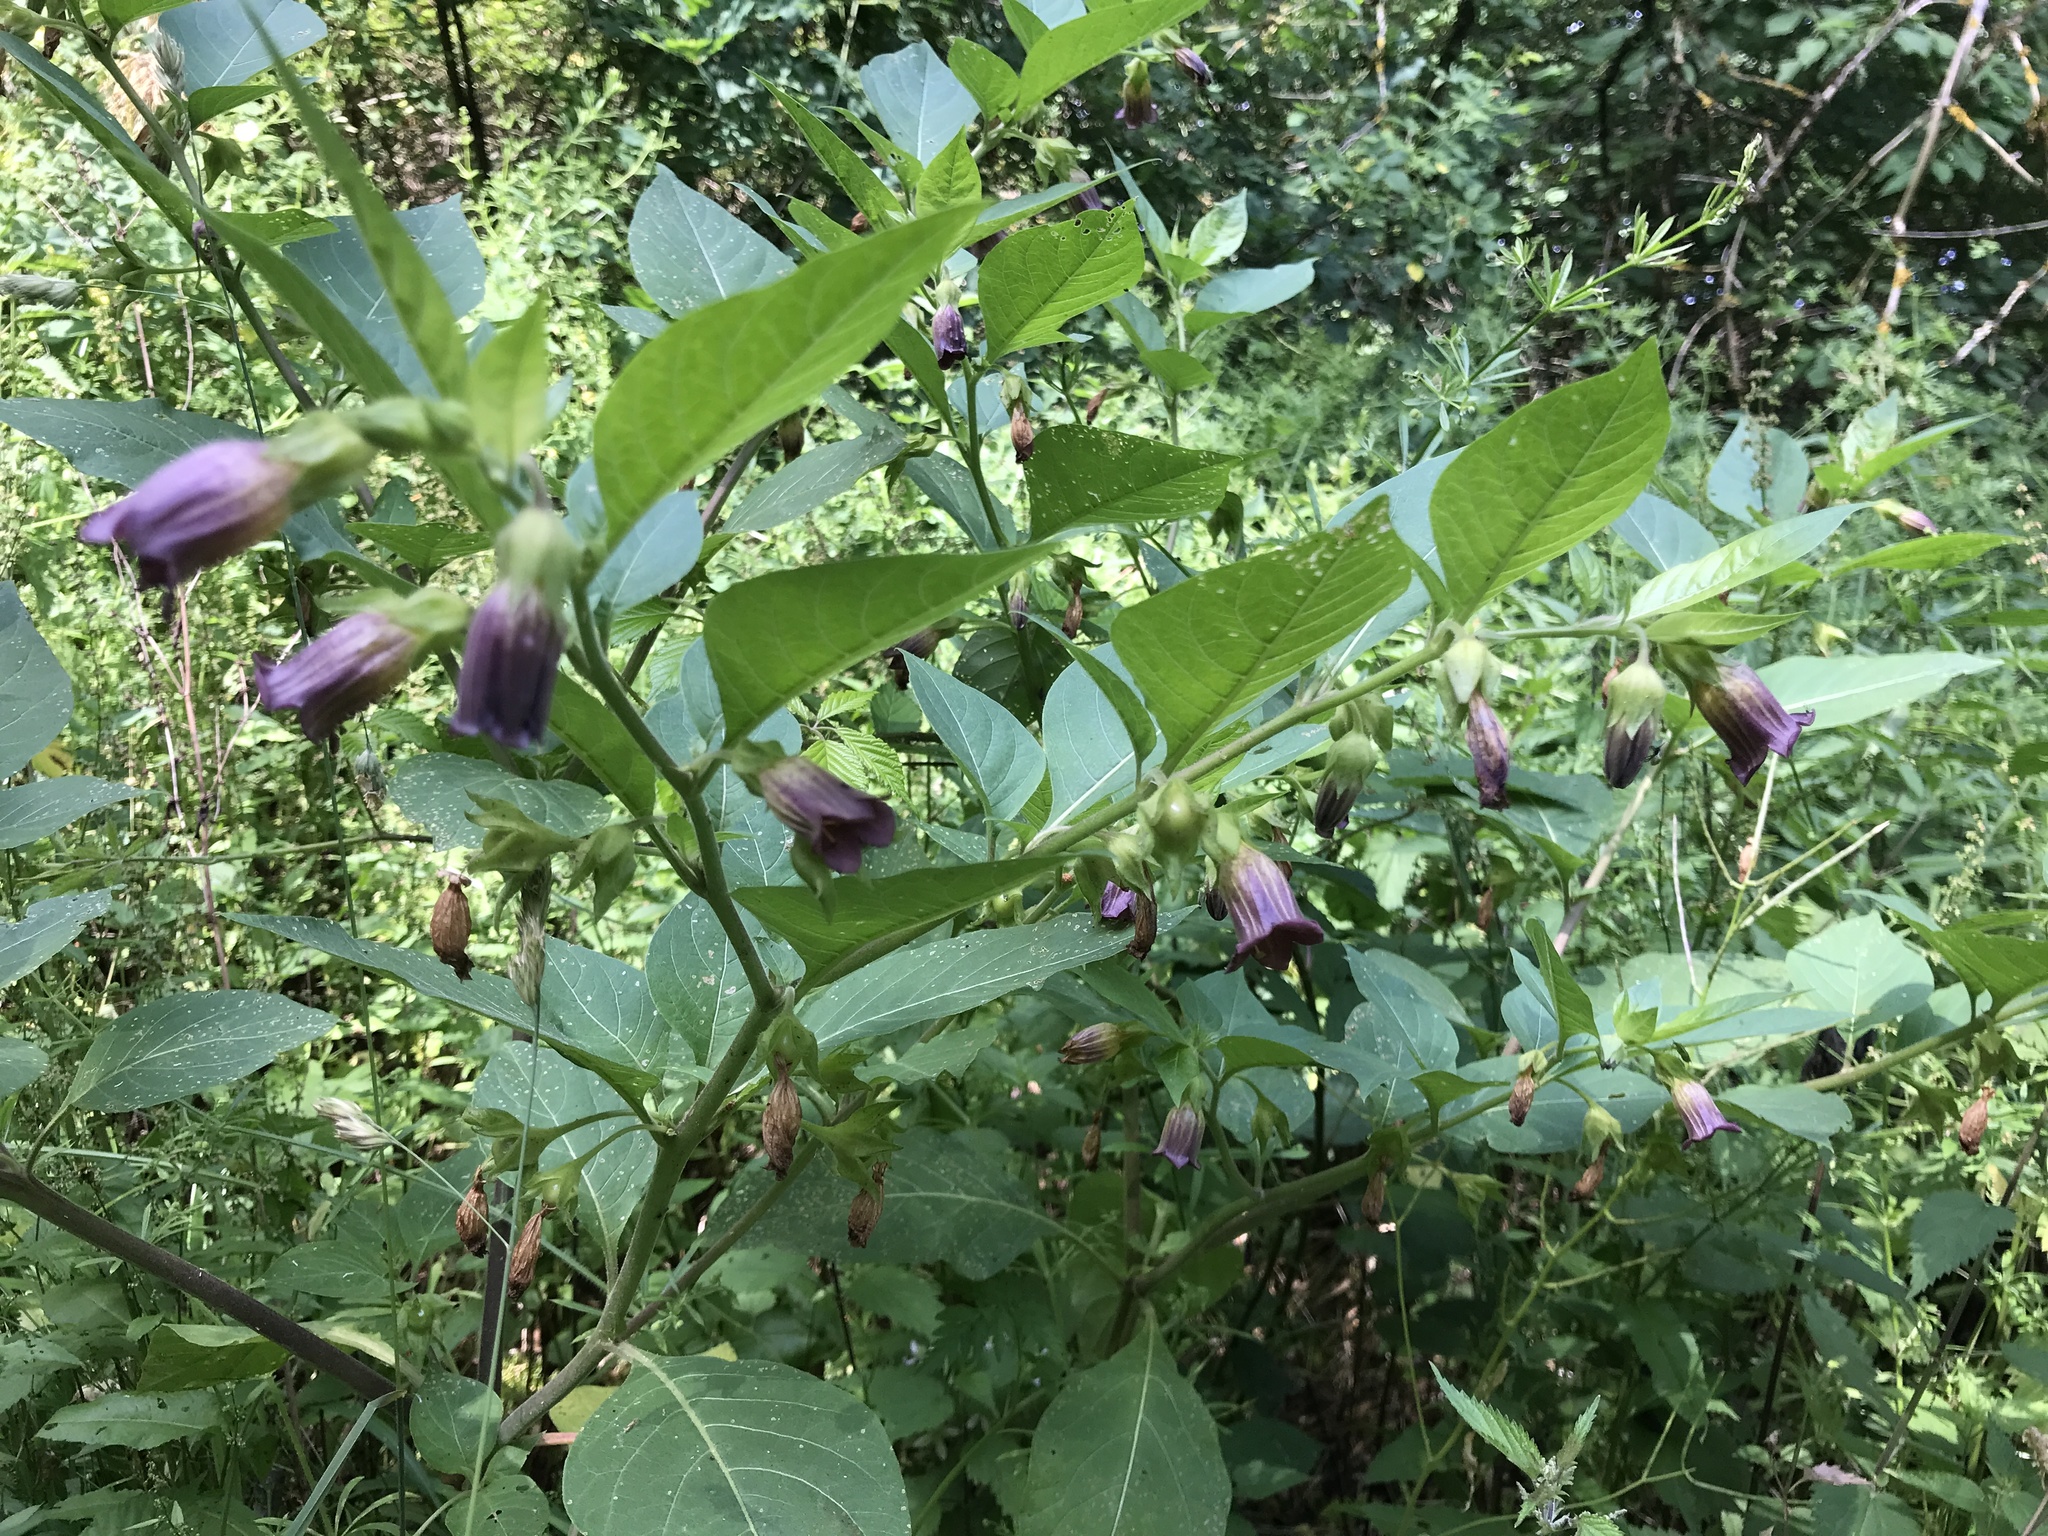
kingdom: Plantae
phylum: Tracheophyta
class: Magnoliopsida
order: Solanales
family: Solanaceae
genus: Atropa
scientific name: Atropa belladonna
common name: Deadly nightshade
